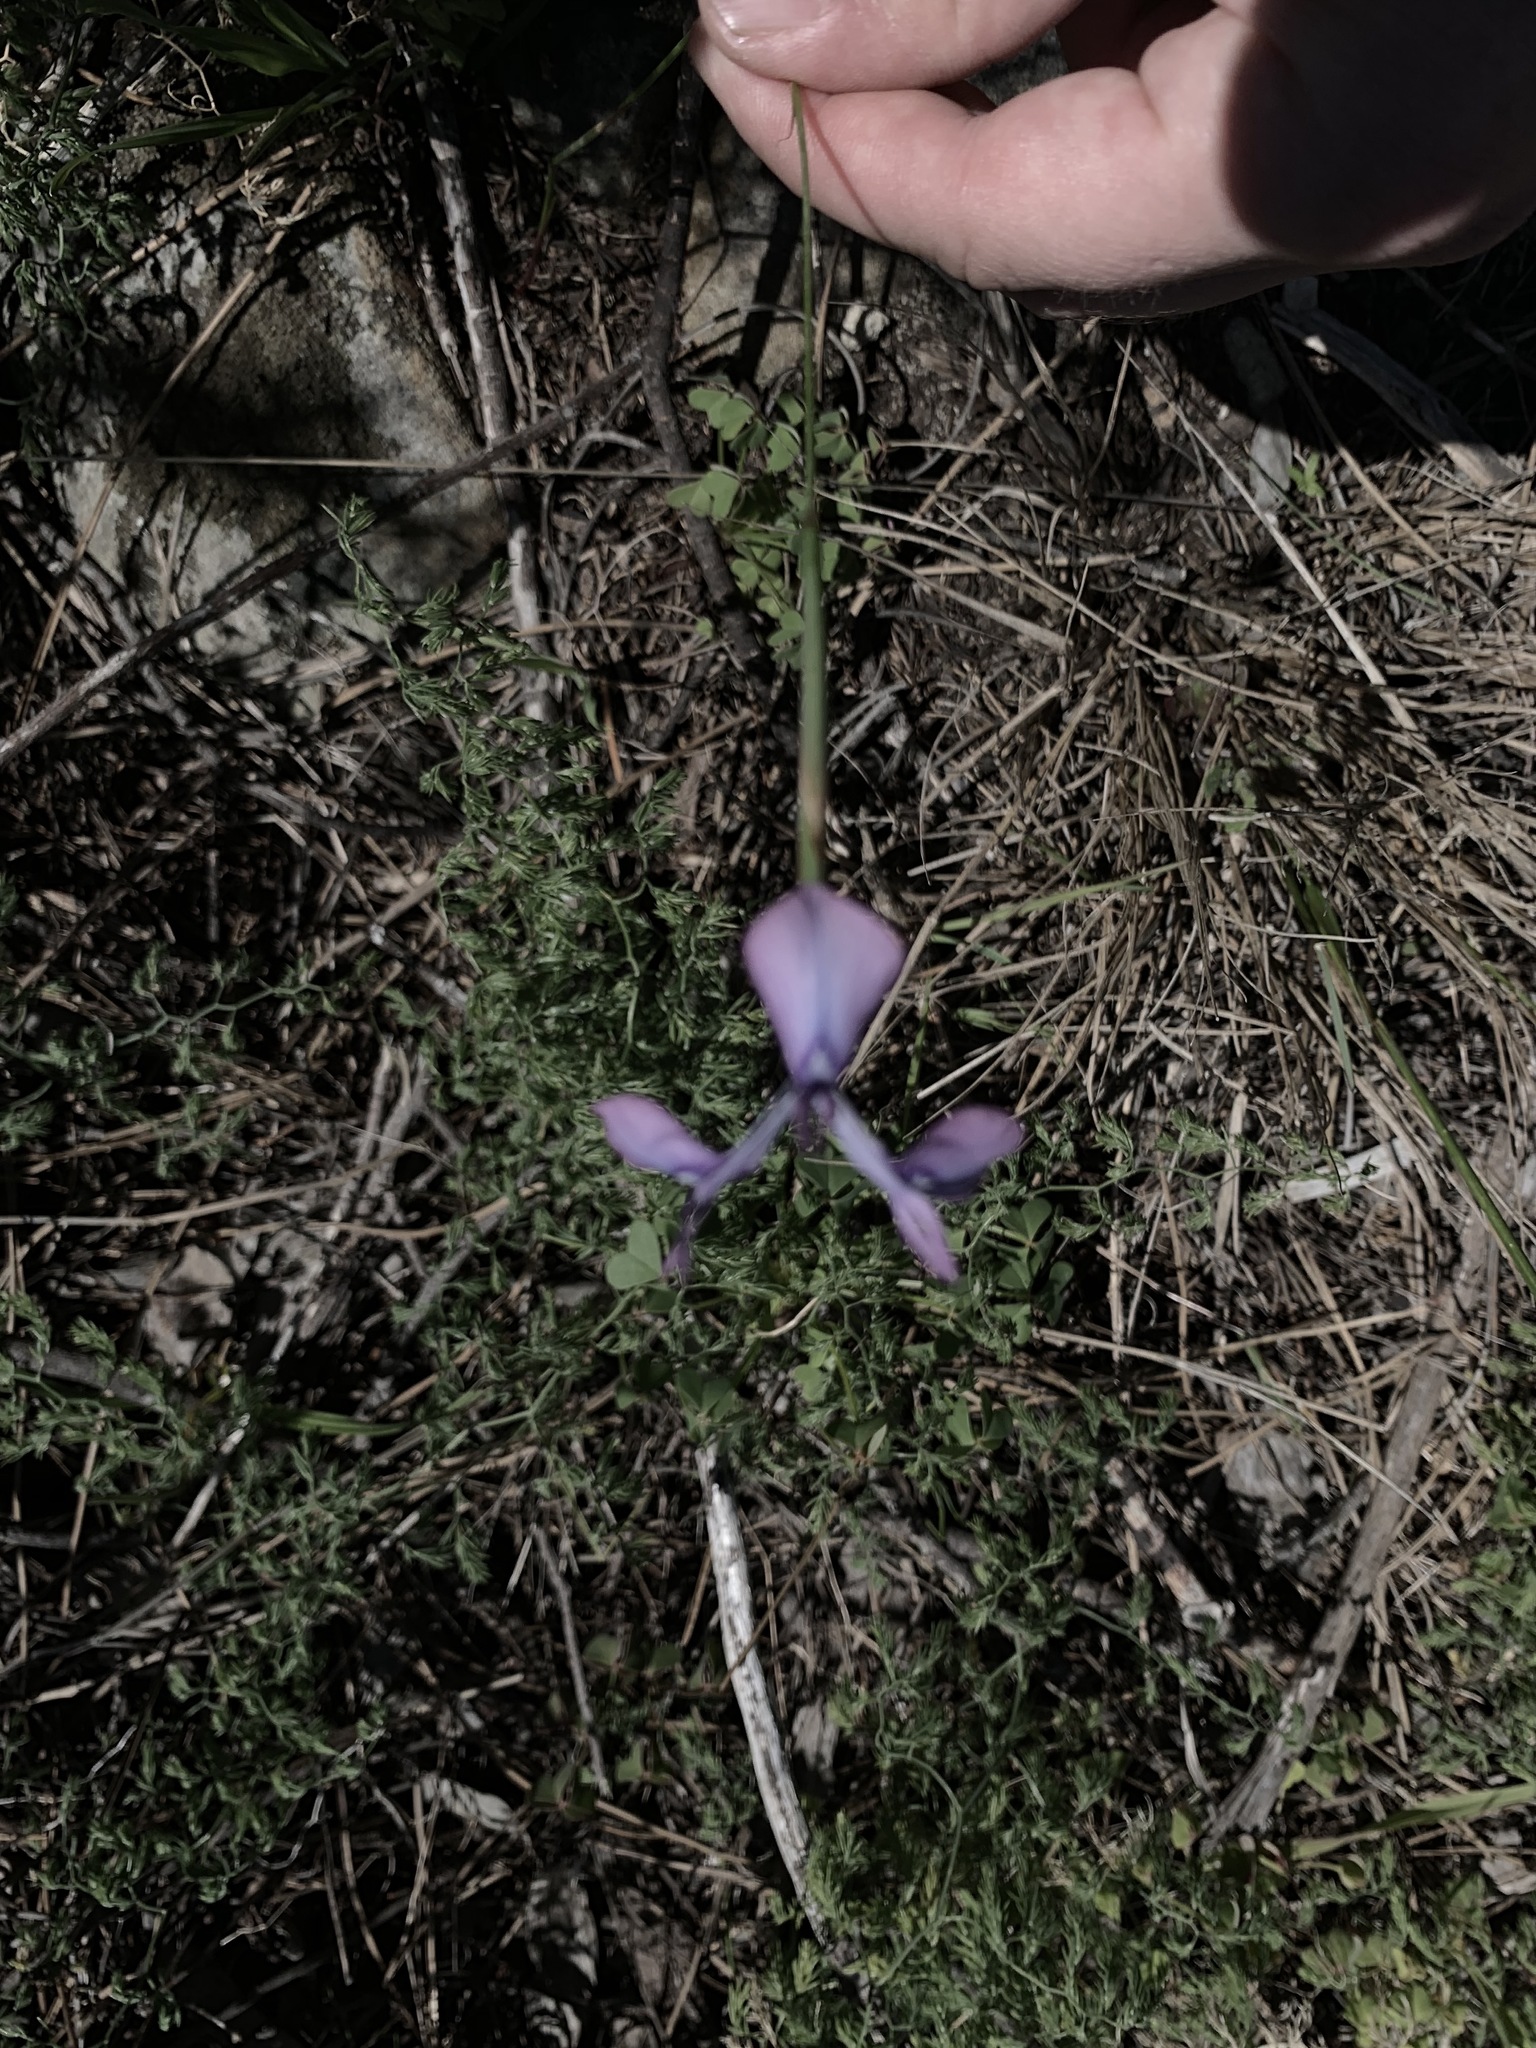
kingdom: Plantae
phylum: Tracheophyta
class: Liliopsida
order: Asparagales
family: Iridaceae
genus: Moraea
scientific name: Moraea tripetala
